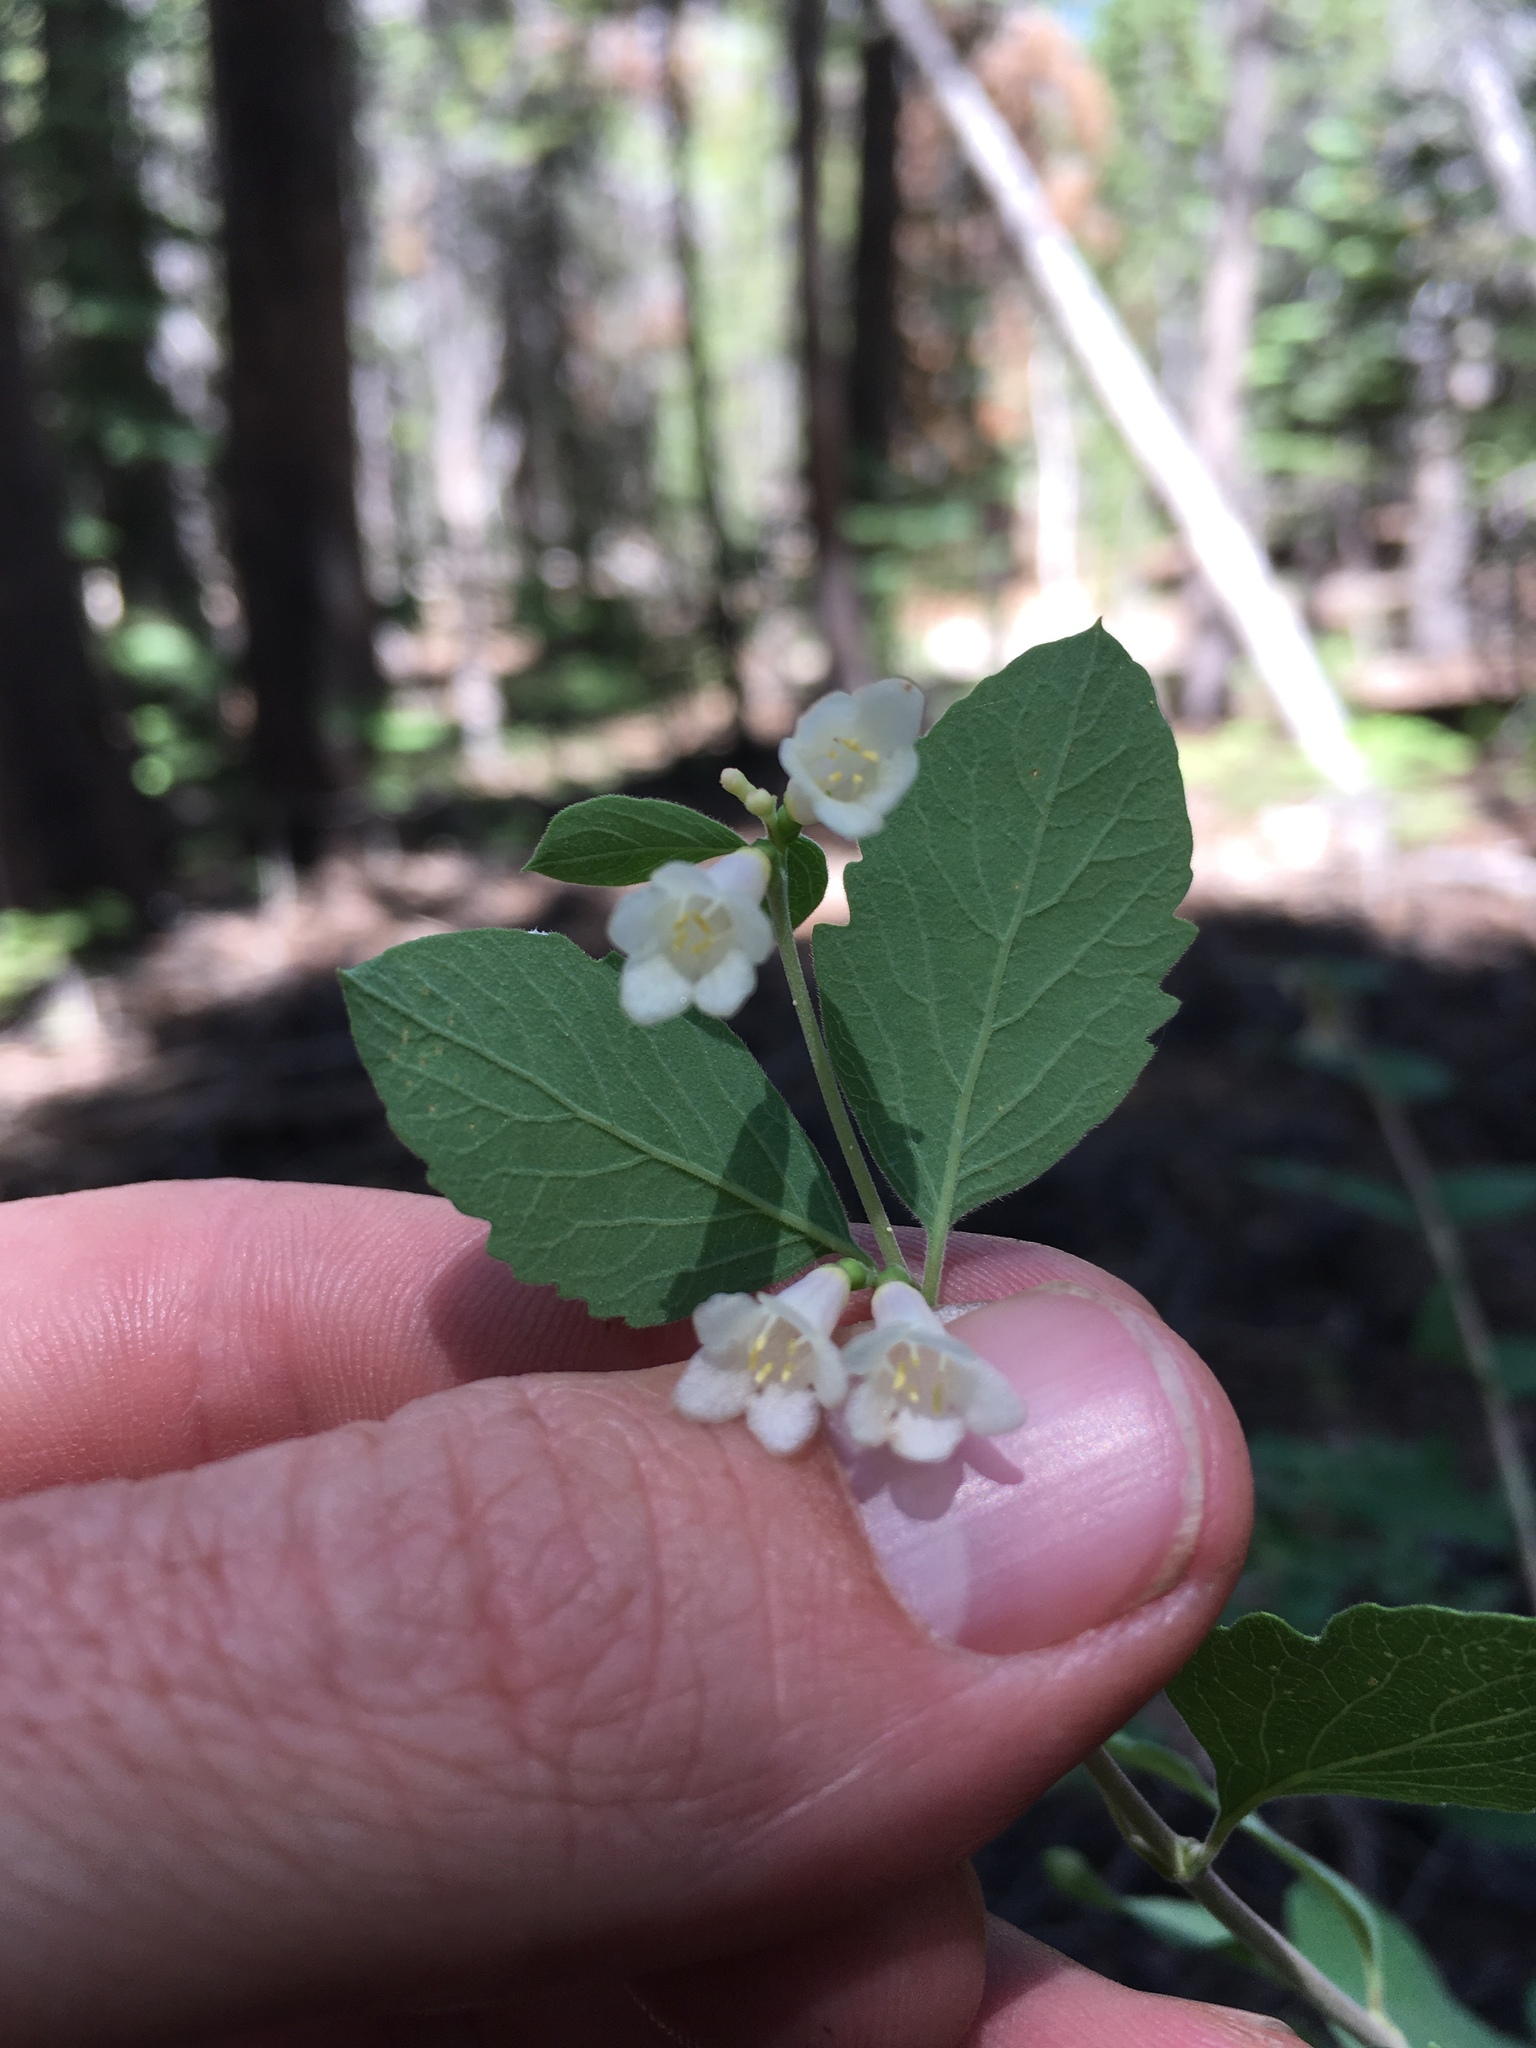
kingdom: Plantae
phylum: Tracheophyta
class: Magnoliopsida
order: Dipsacales
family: Caprifoliaceae
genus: Symphoricarpos
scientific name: Symphoricarpos rotundifolius
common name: Round-leaved snowberry
